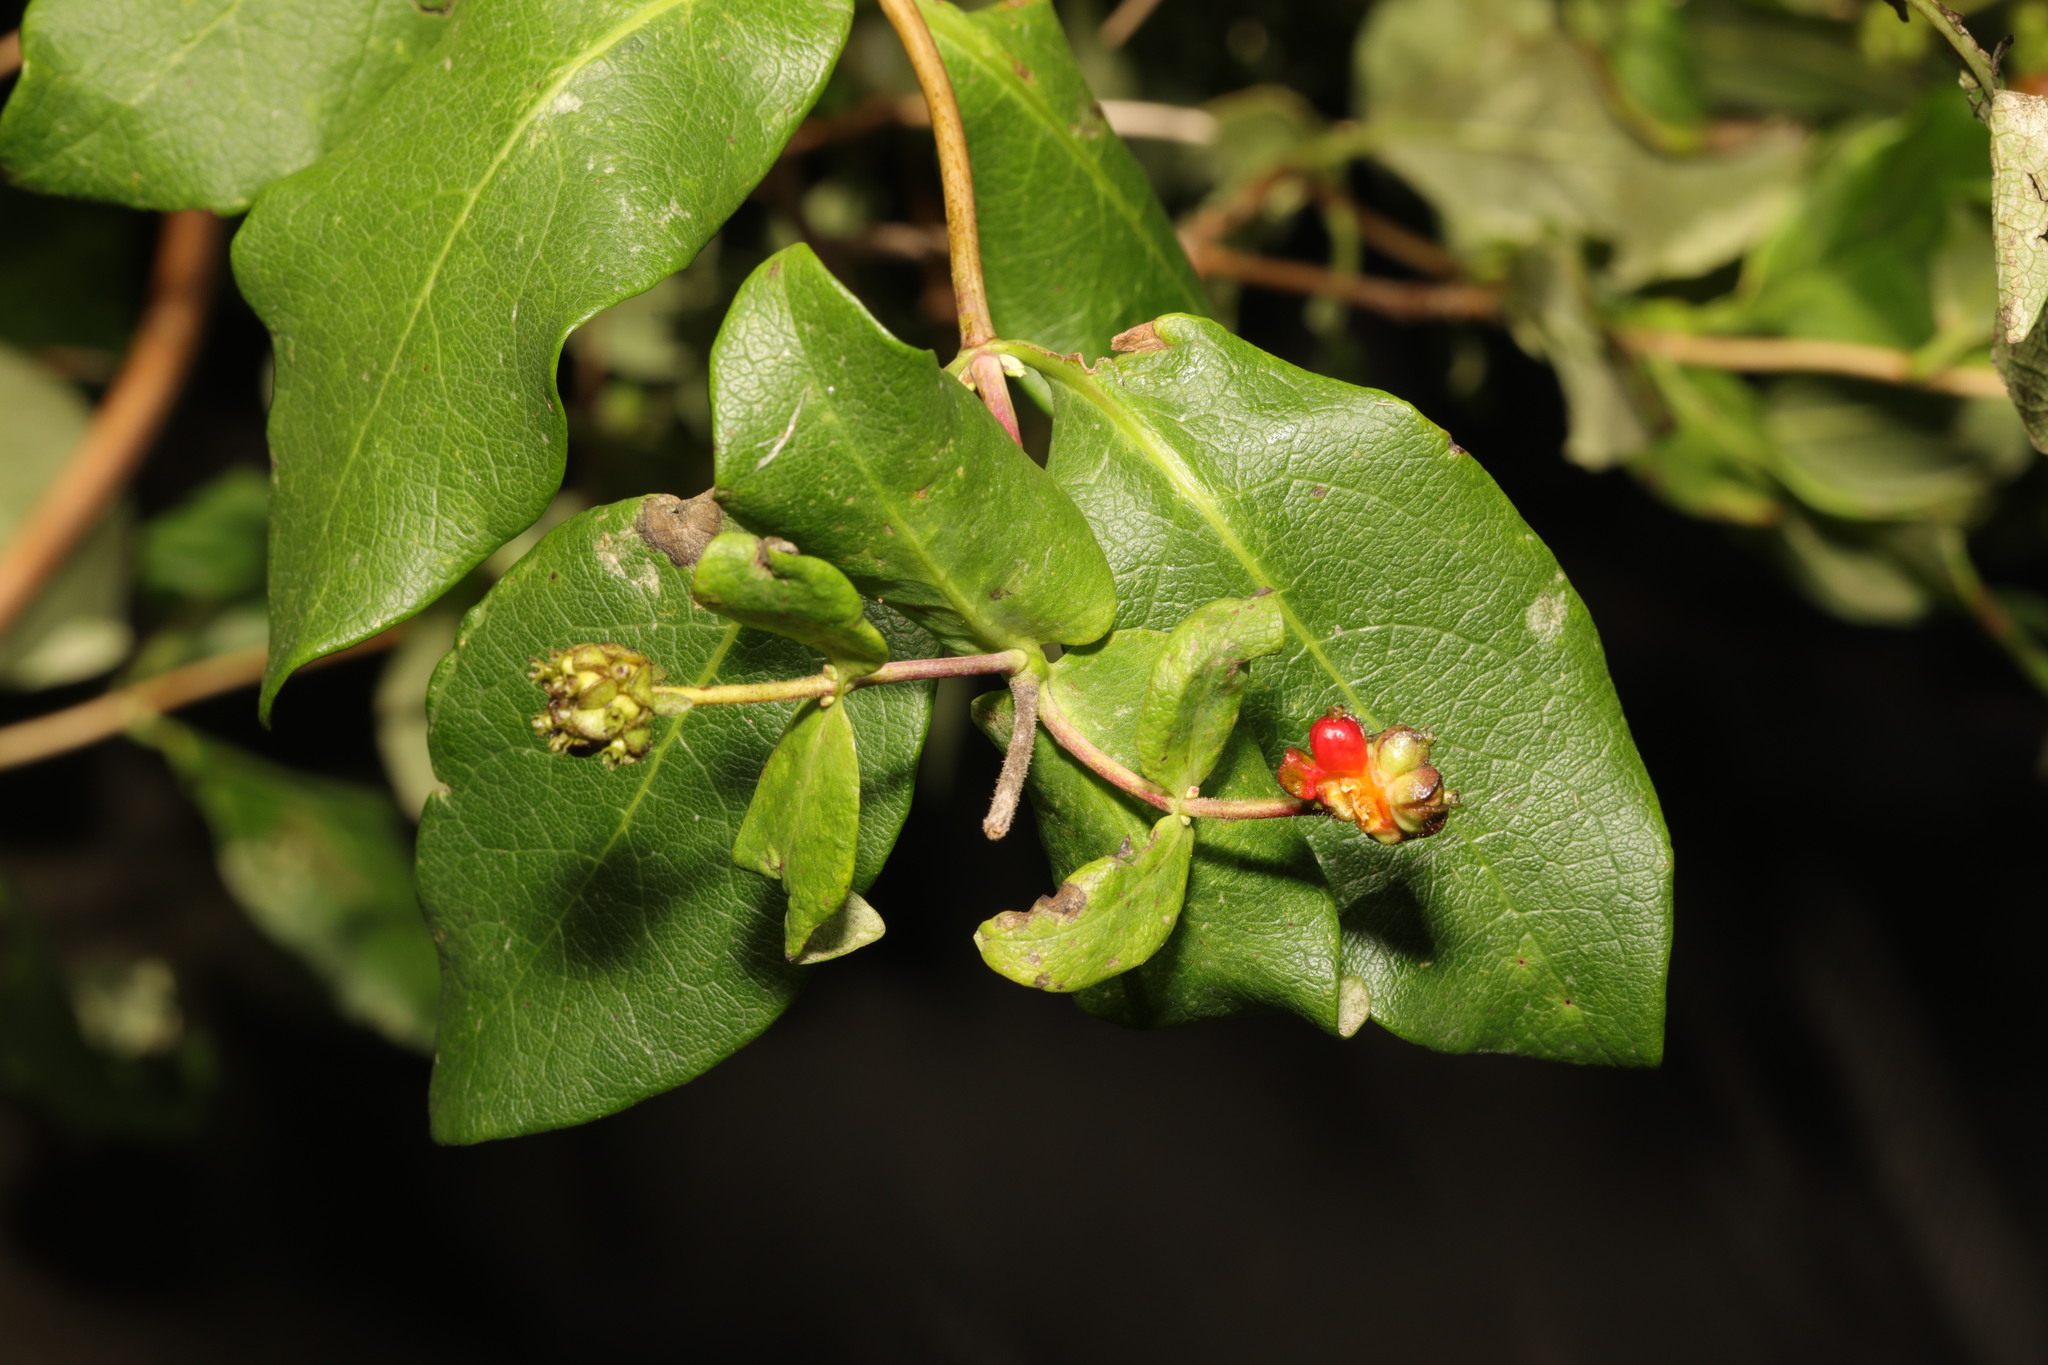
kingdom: Plantae
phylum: Tracheophyta
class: Magnoliopsida
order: Dipsacales
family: Caprifoliaceae
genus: Lonicera
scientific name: Lonicera periclymenum
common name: European honeysuckle
